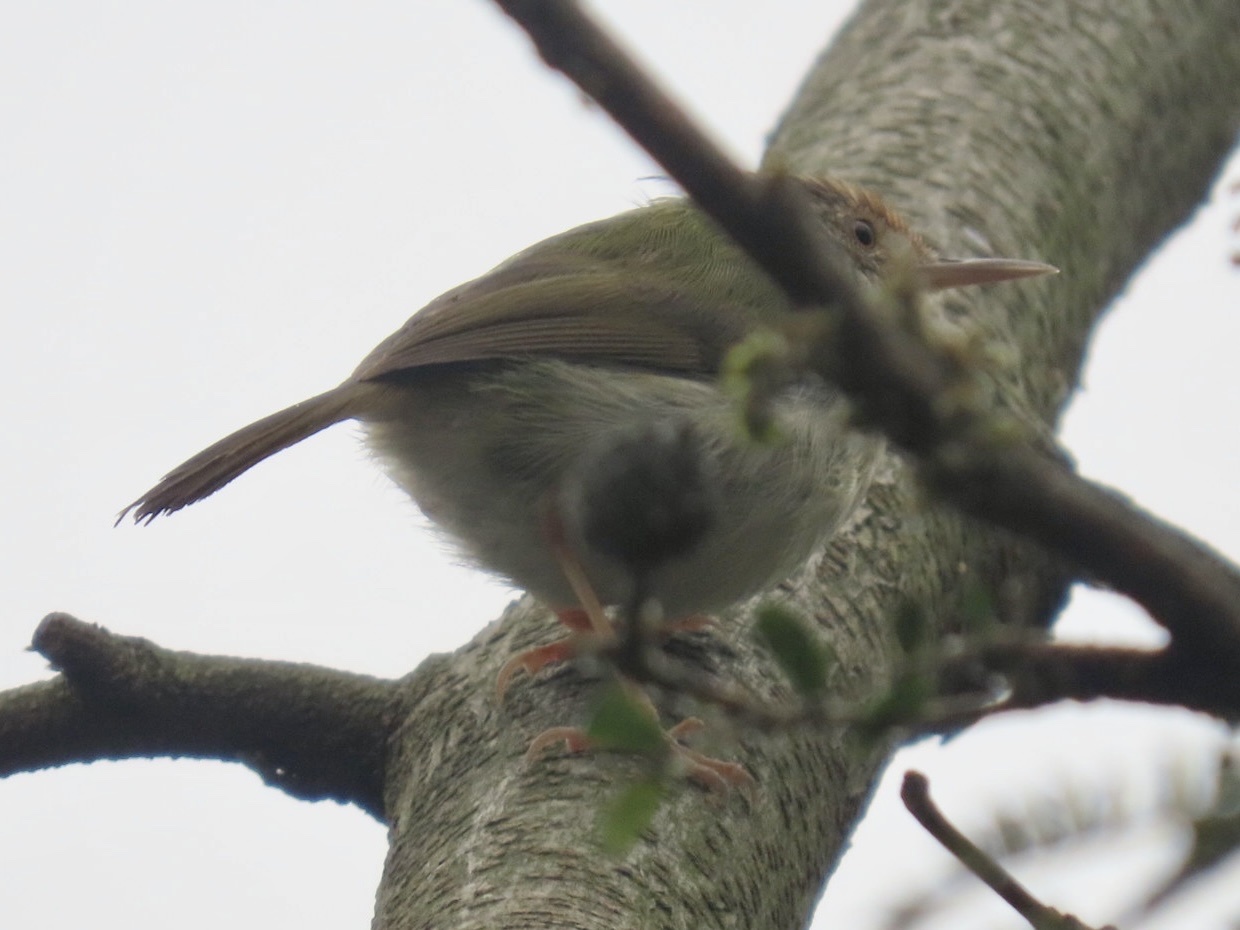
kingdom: Animalia
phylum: Chordata
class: Aves
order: Passeriformes
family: Cisticolidae
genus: Orthotomus
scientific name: Orthotomus sutorius
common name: Common tailorbird
